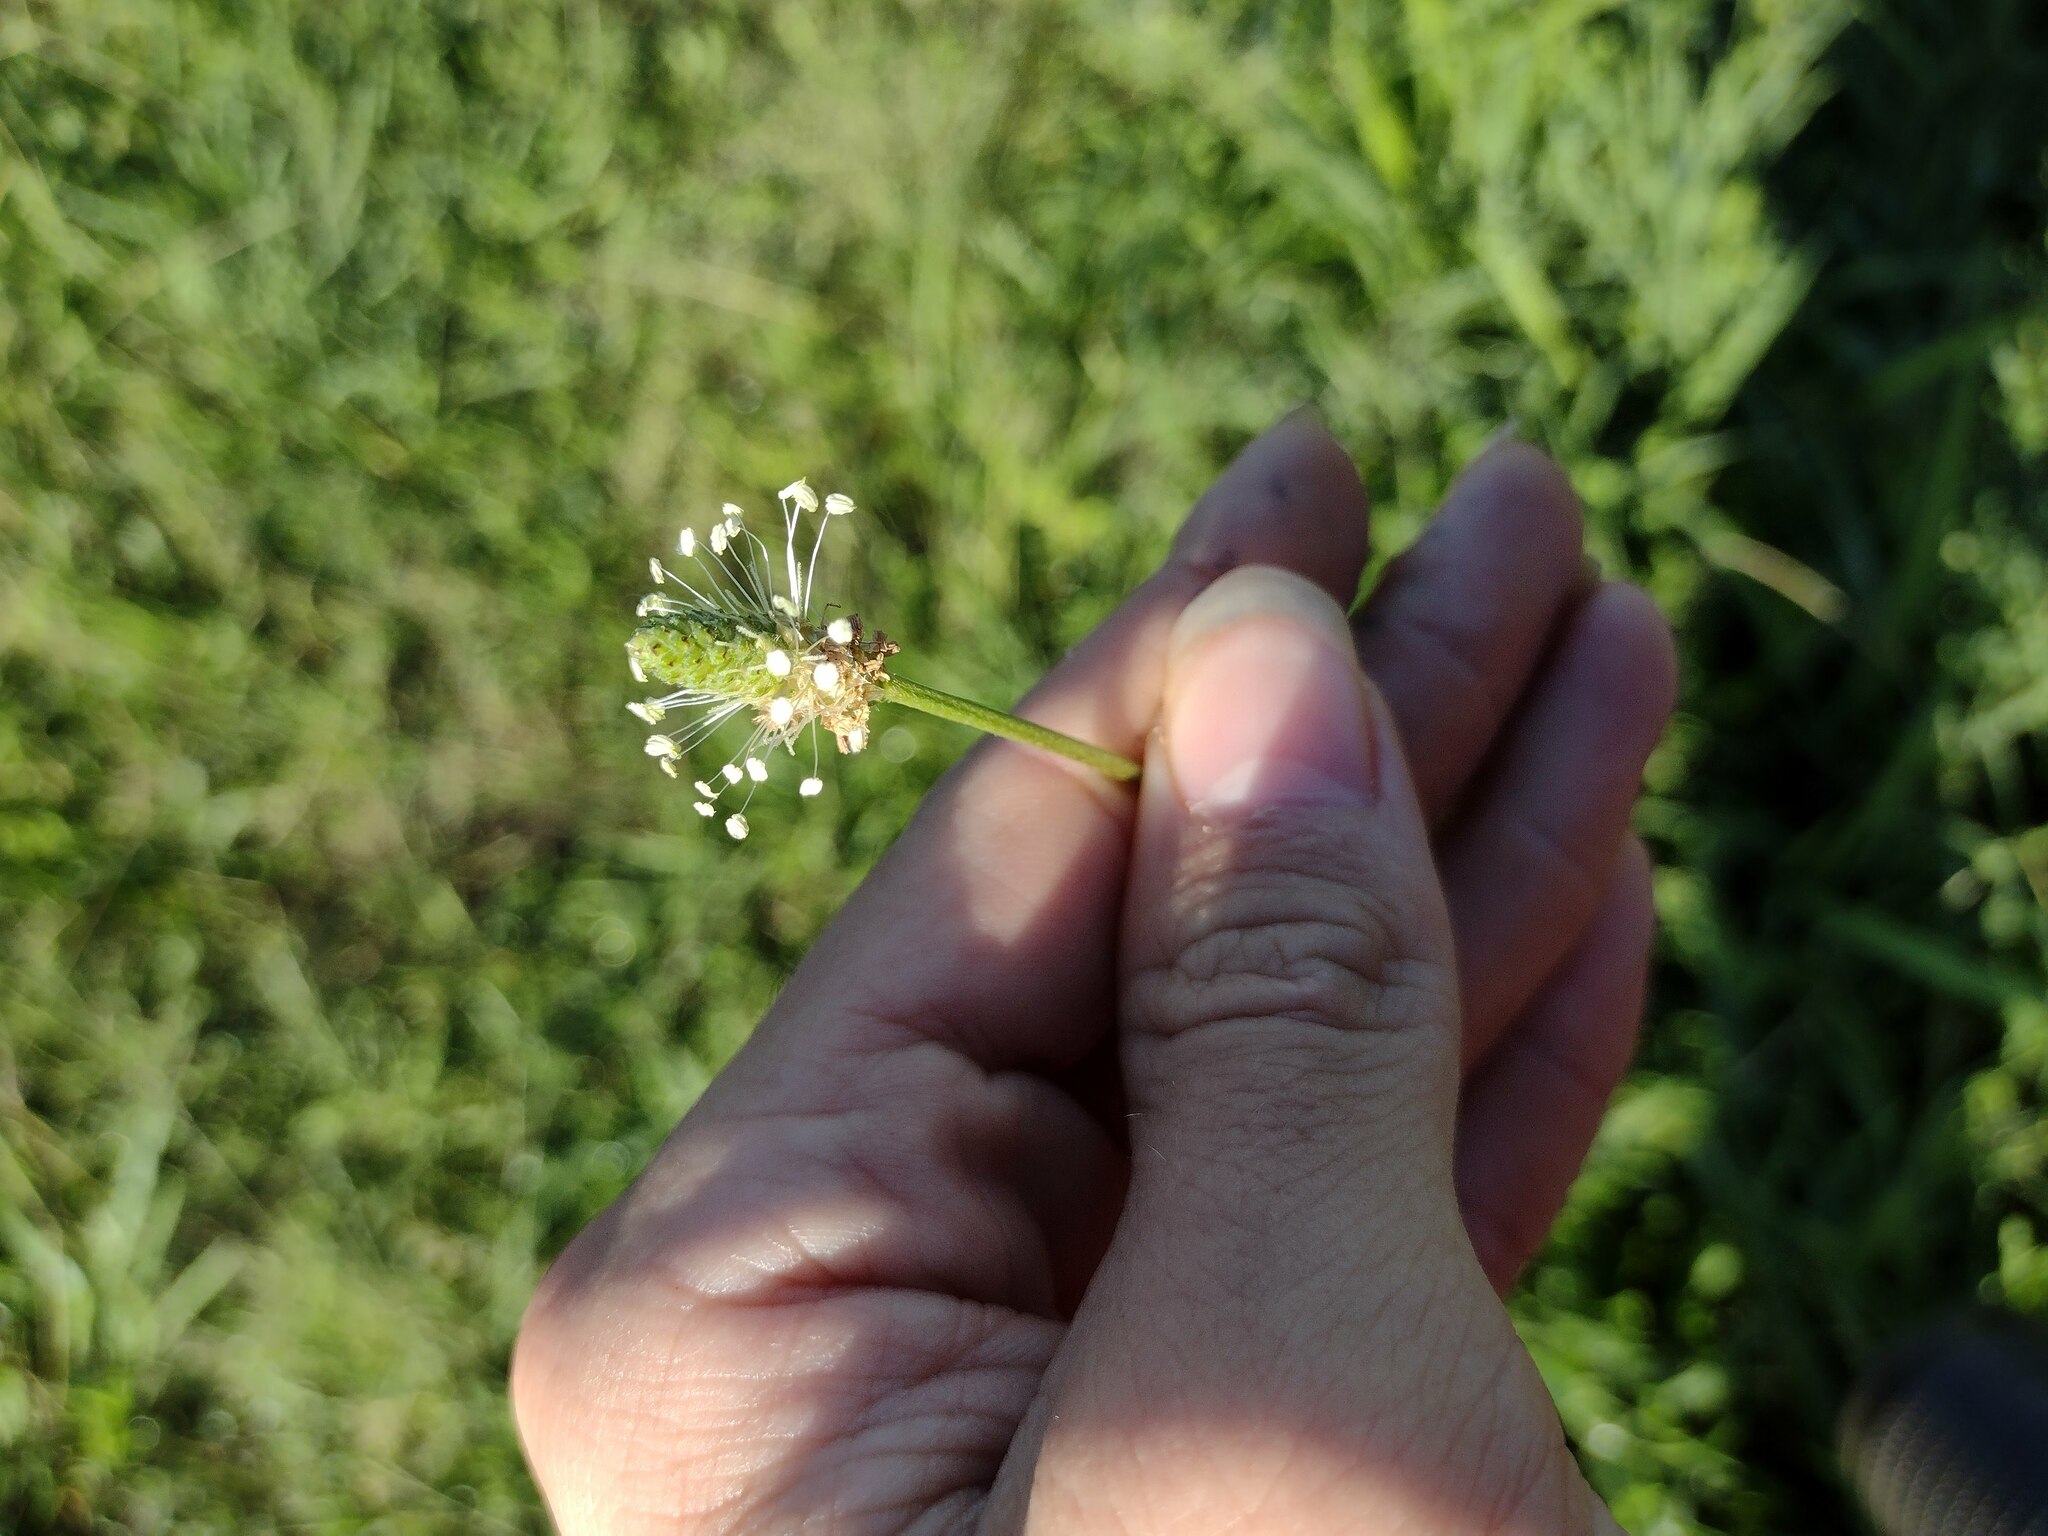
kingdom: Plantae
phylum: Tracheophyta
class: Magnoliopsida
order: Lamiales
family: Plantaginaceae
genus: Plantago
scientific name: Plantago lanceolata
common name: Ribwort plantain
